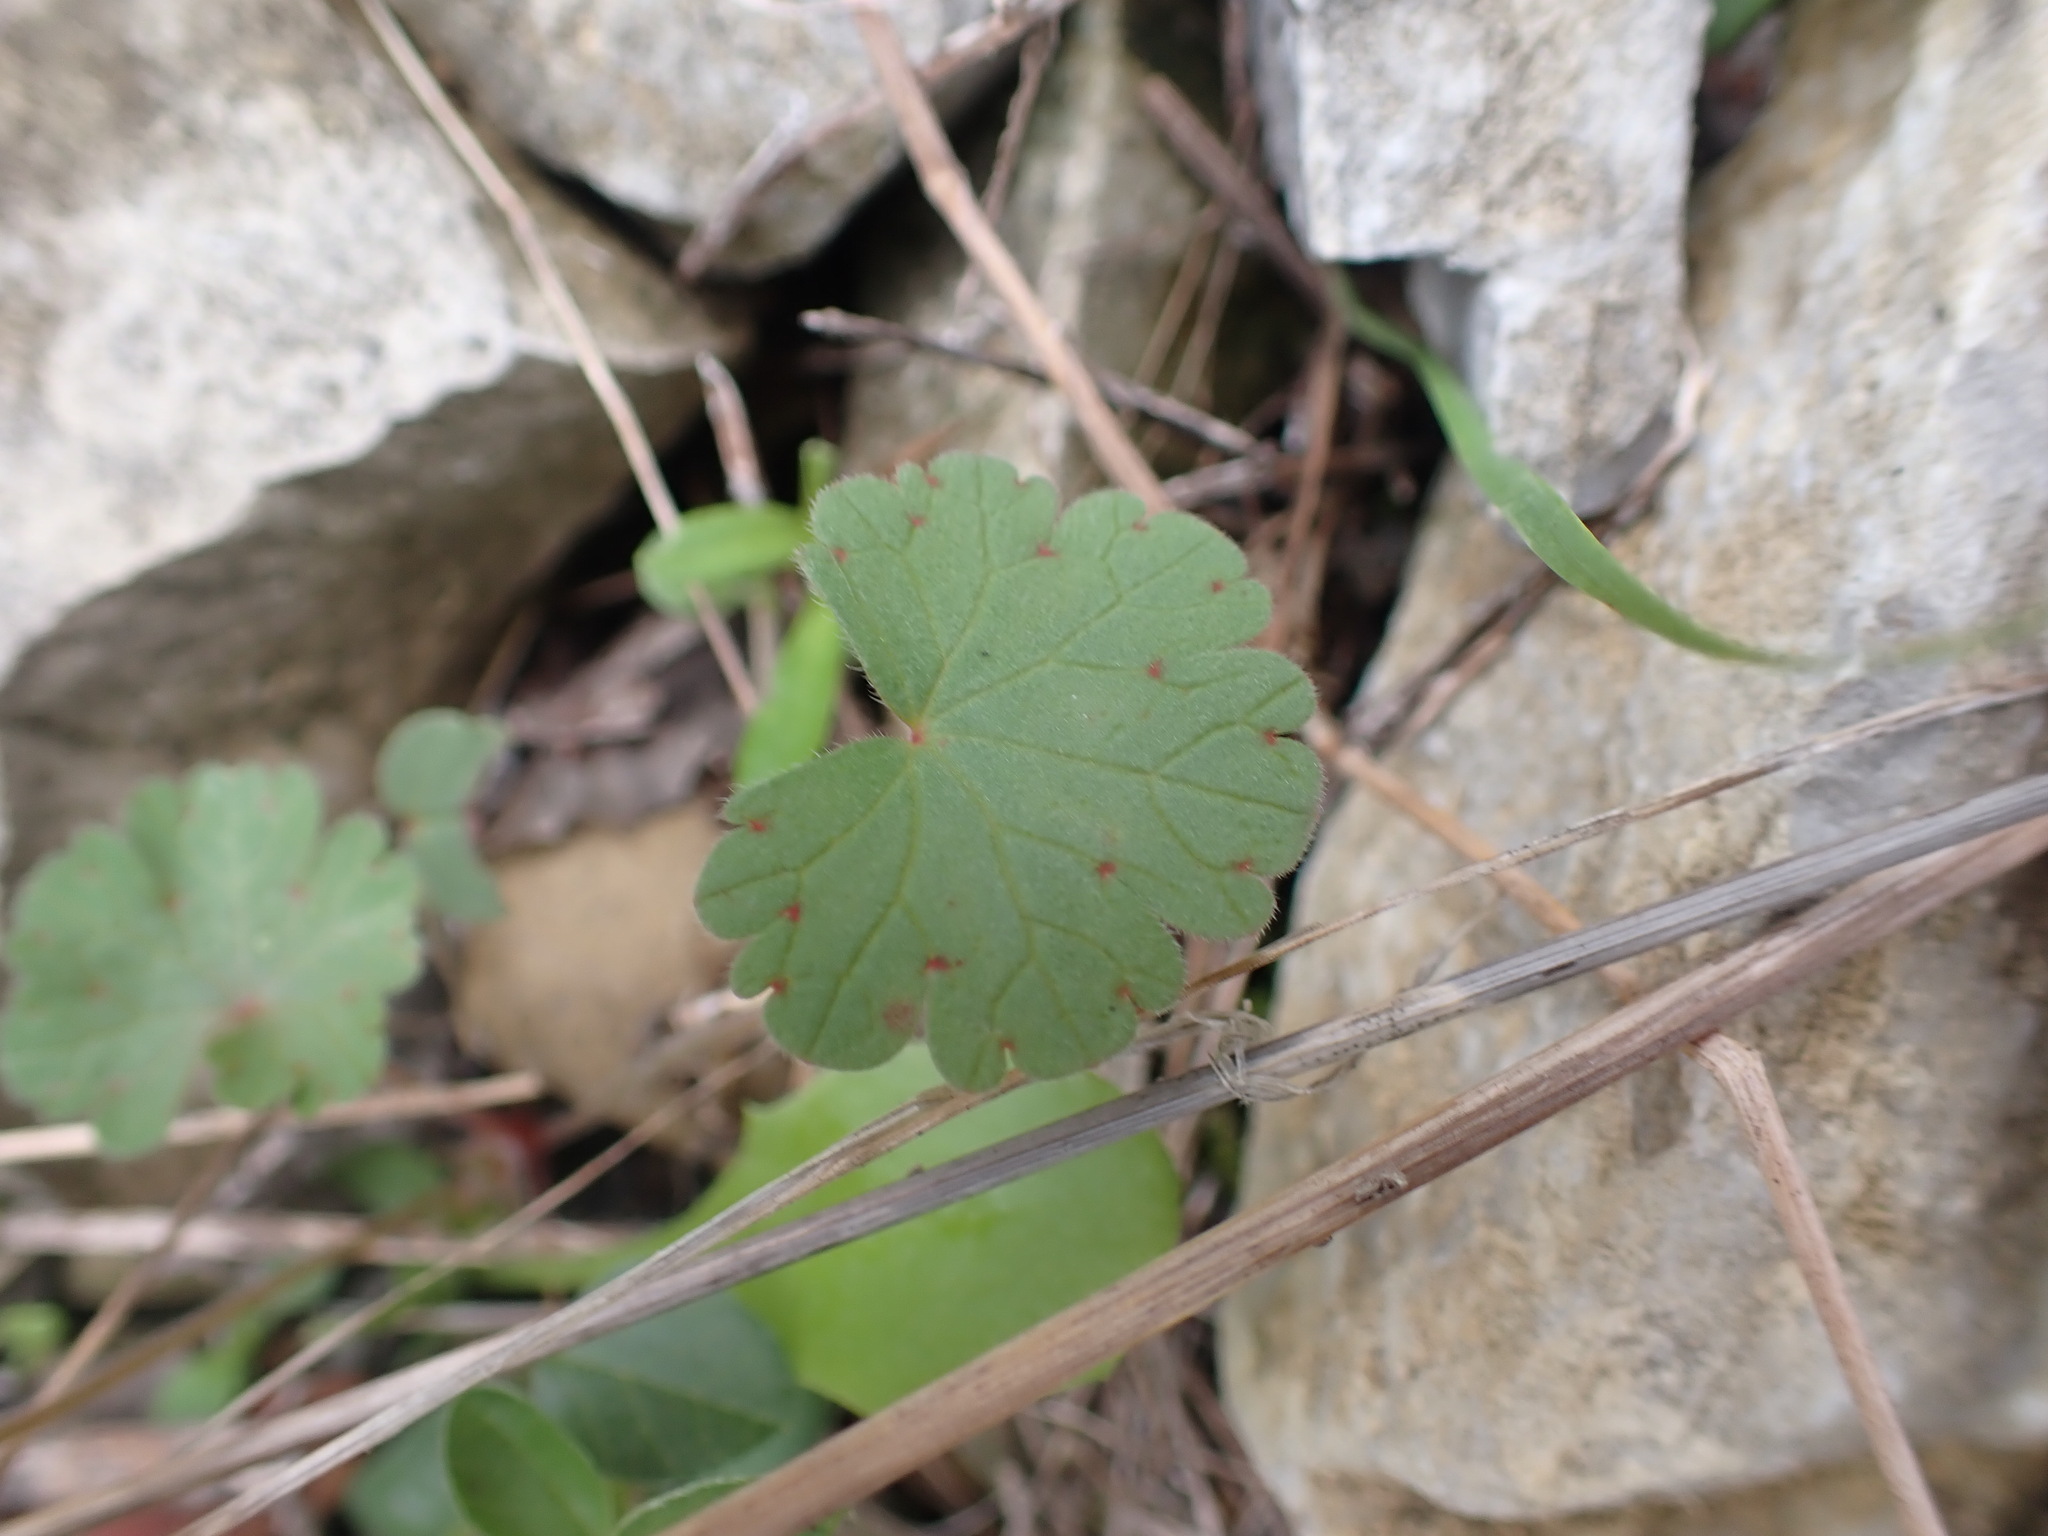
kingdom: Plantae
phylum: Tracheophyta
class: Magnoliopsida
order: Geraniales
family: Geraniaceae
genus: Geranium
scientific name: Geranium rotundifolium
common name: Round-leaved crane's-bill
